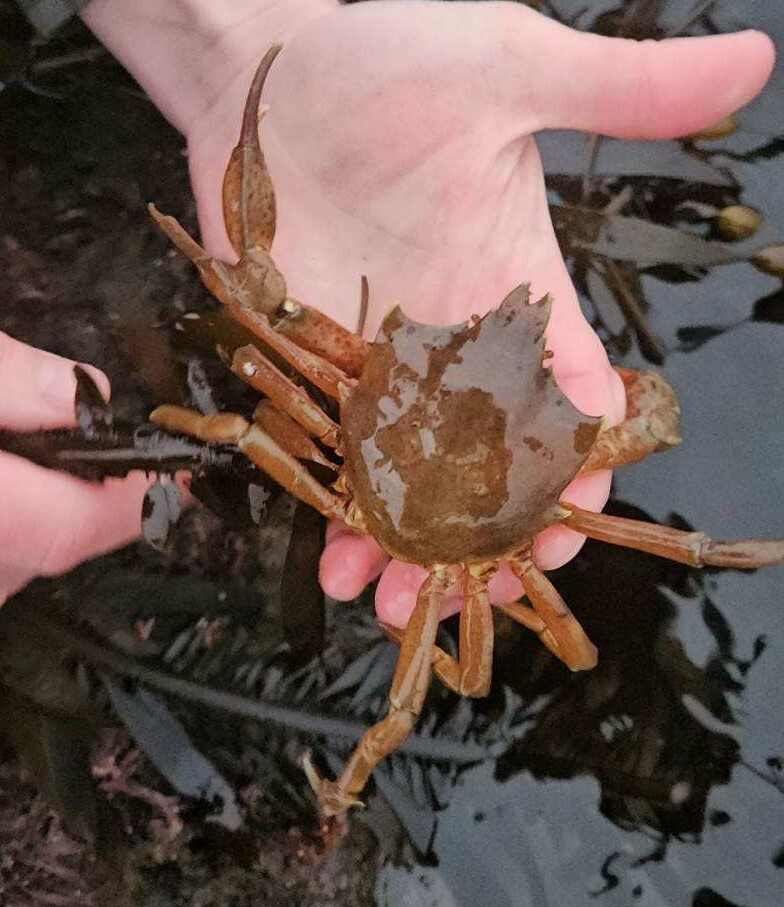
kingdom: Animalia
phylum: Arthropoda
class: Malacostraca
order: Decapoda
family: Epialtidae
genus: Pugettia
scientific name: Pugettia producta
